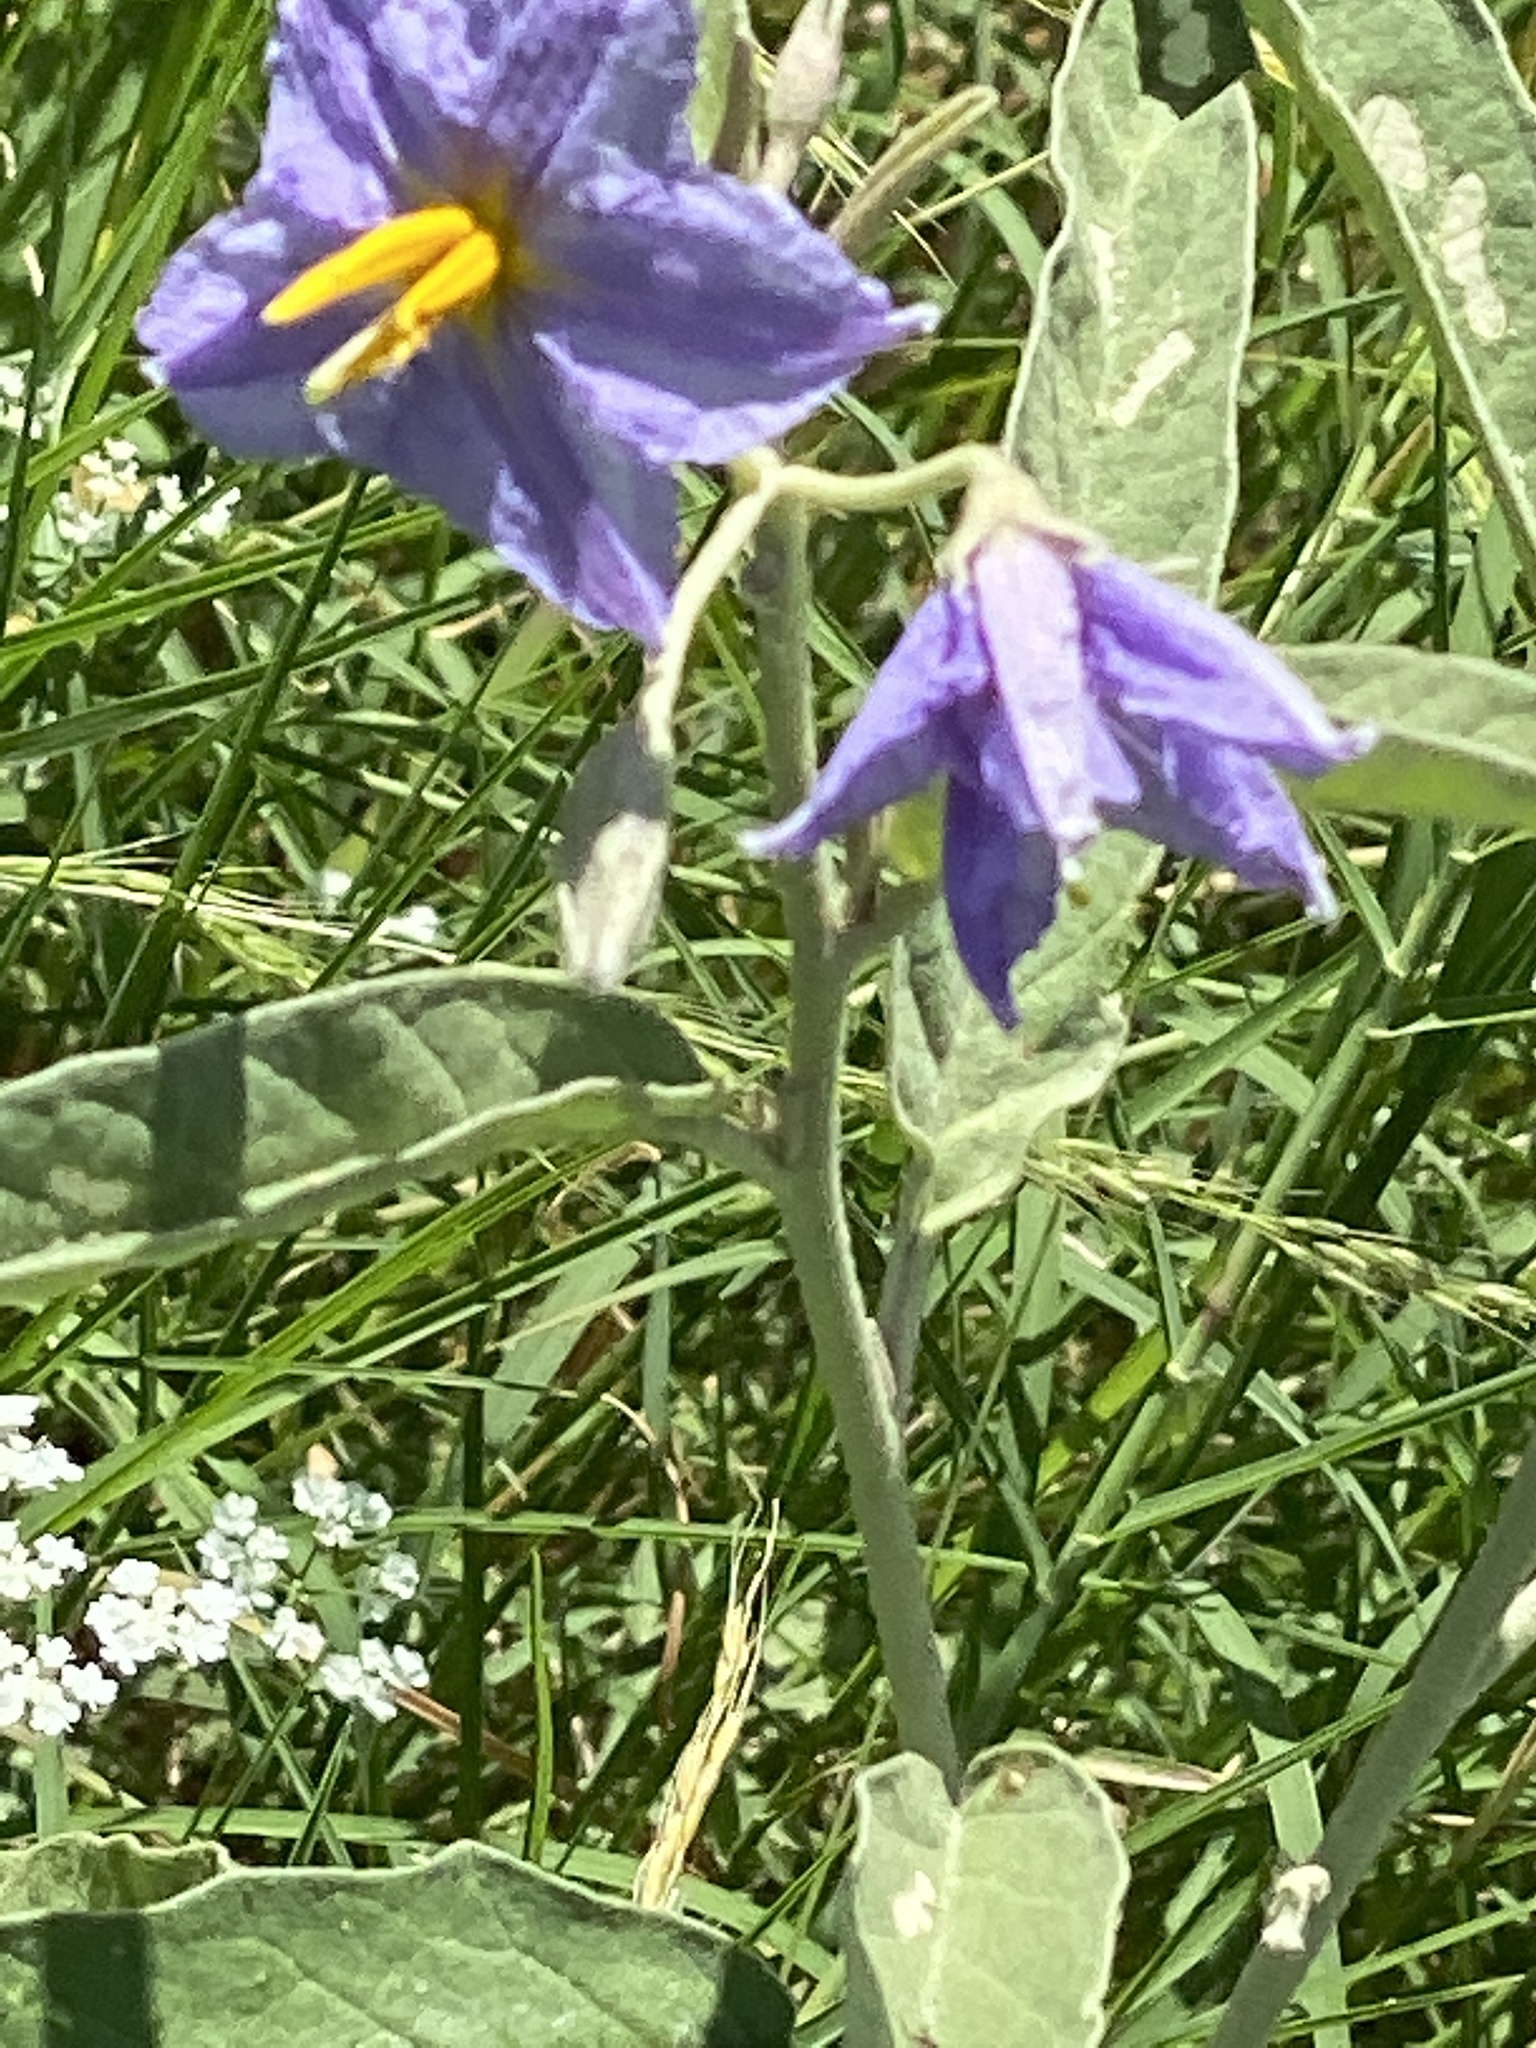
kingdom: Plantae
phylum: Tracheophyta
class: Magnoliopsida
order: Solanales
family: Solanaceae
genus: Solanum
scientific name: Solanum elaeagnifolium
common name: Silverleaf nightshade
